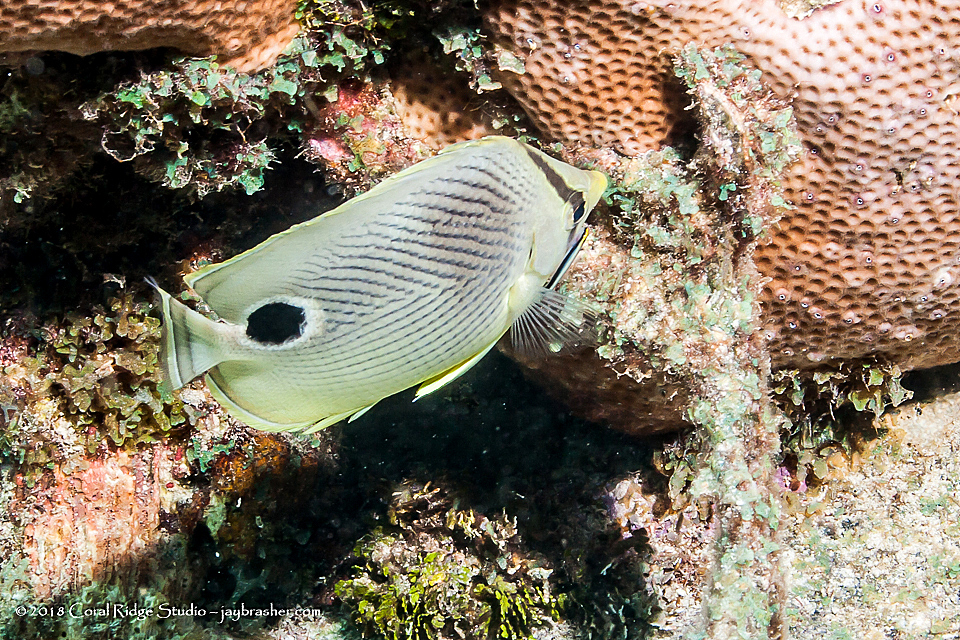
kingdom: Animalia
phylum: Chordata
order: Perciformes
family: Chaetodontidae
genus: Chaetodon
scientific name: Chaetodon capistratus
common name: Kete
